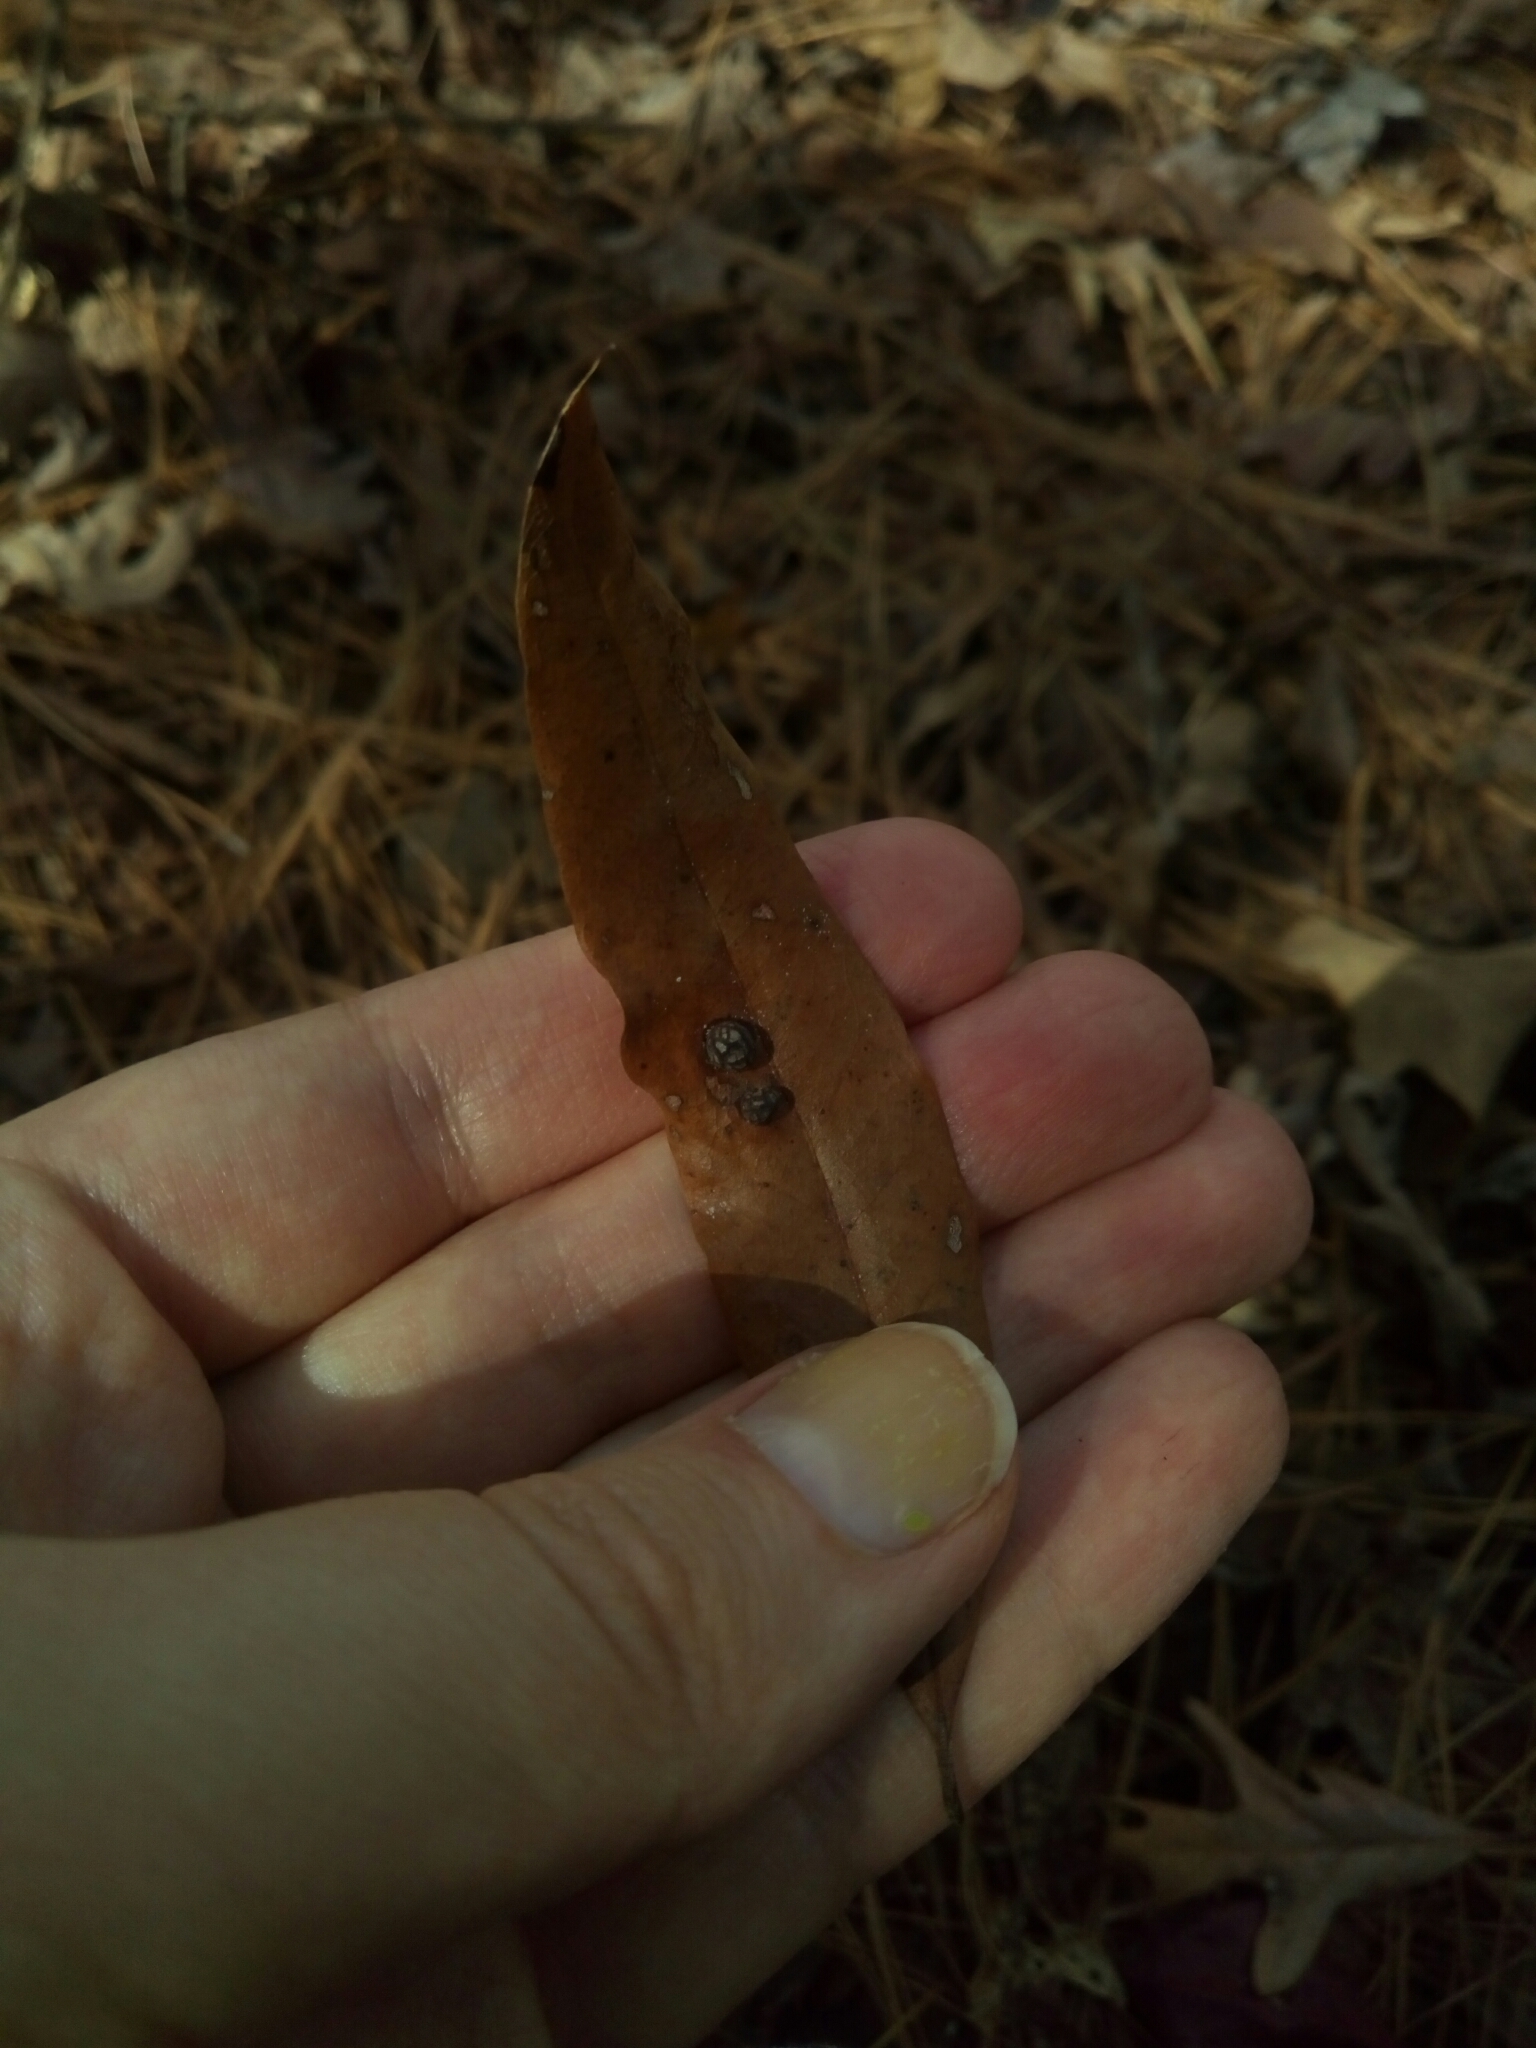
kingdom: Animalia
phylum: Arthropoda
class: Insecta
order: Diptera
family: Cecidomyiidae
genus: Polystepha
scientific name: Polystepha pilulae
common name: Oak leaf gall midge
